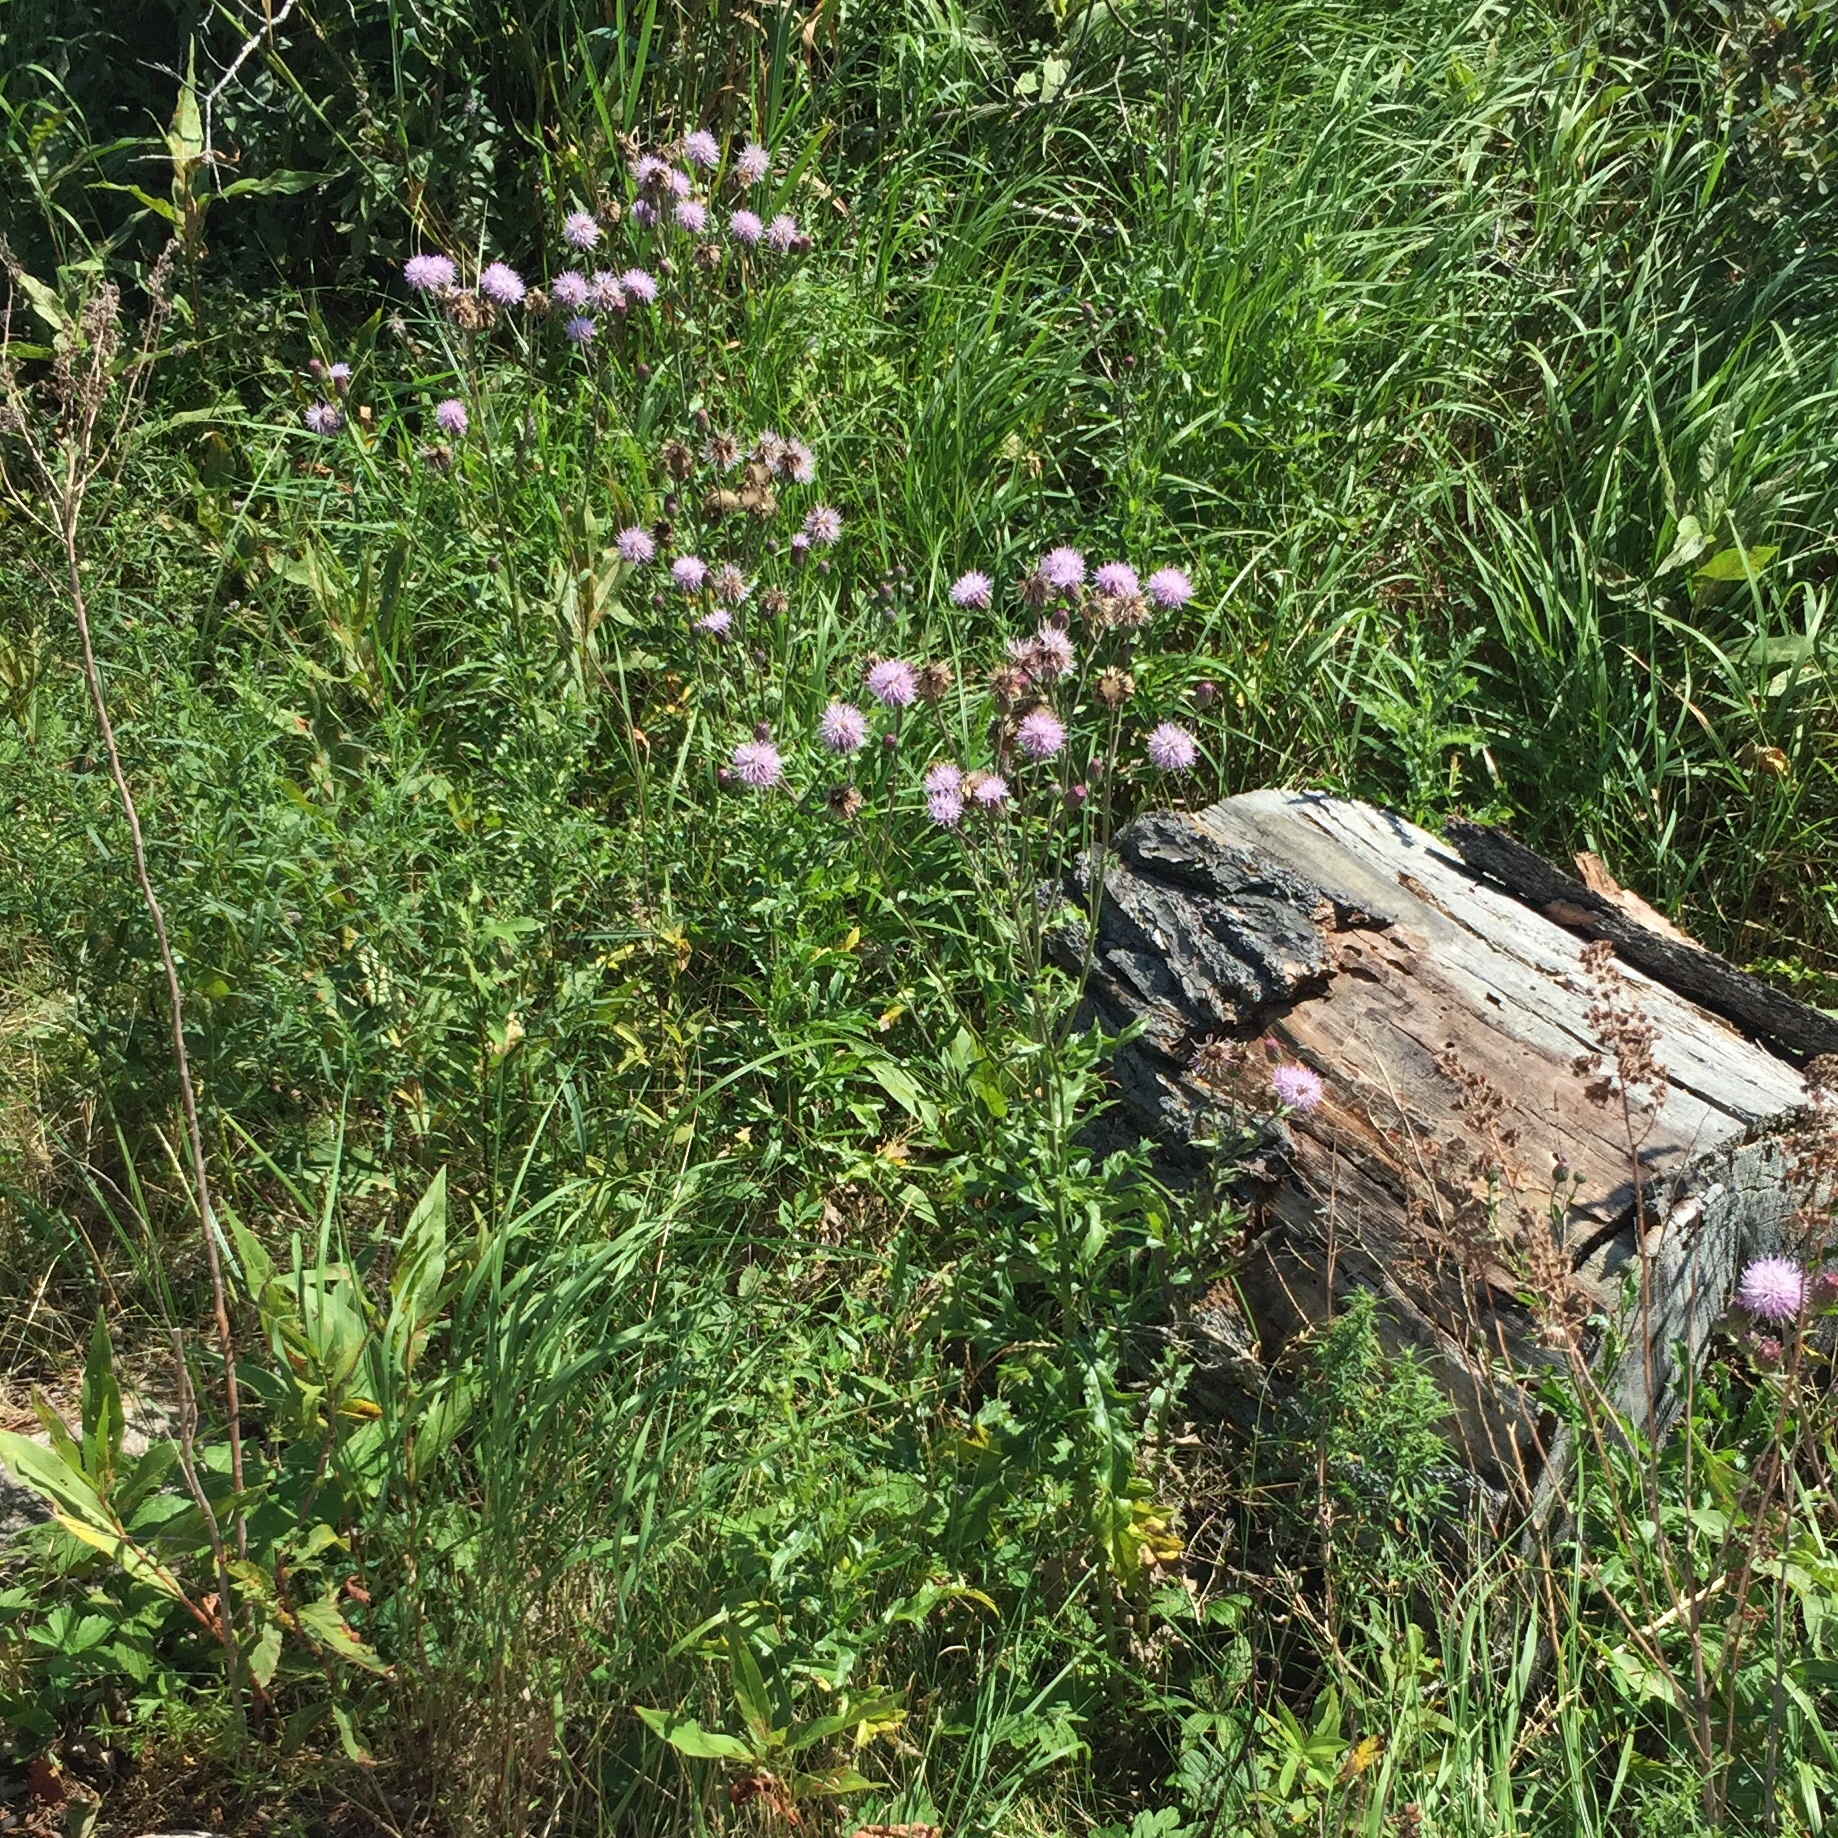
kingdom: Plantae
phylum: Tracheophyta
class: Magnoliopsida
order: Asterales
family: Asteraceae
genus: Cirsium
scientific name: Cirsium arvense
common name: Creeping thistle
